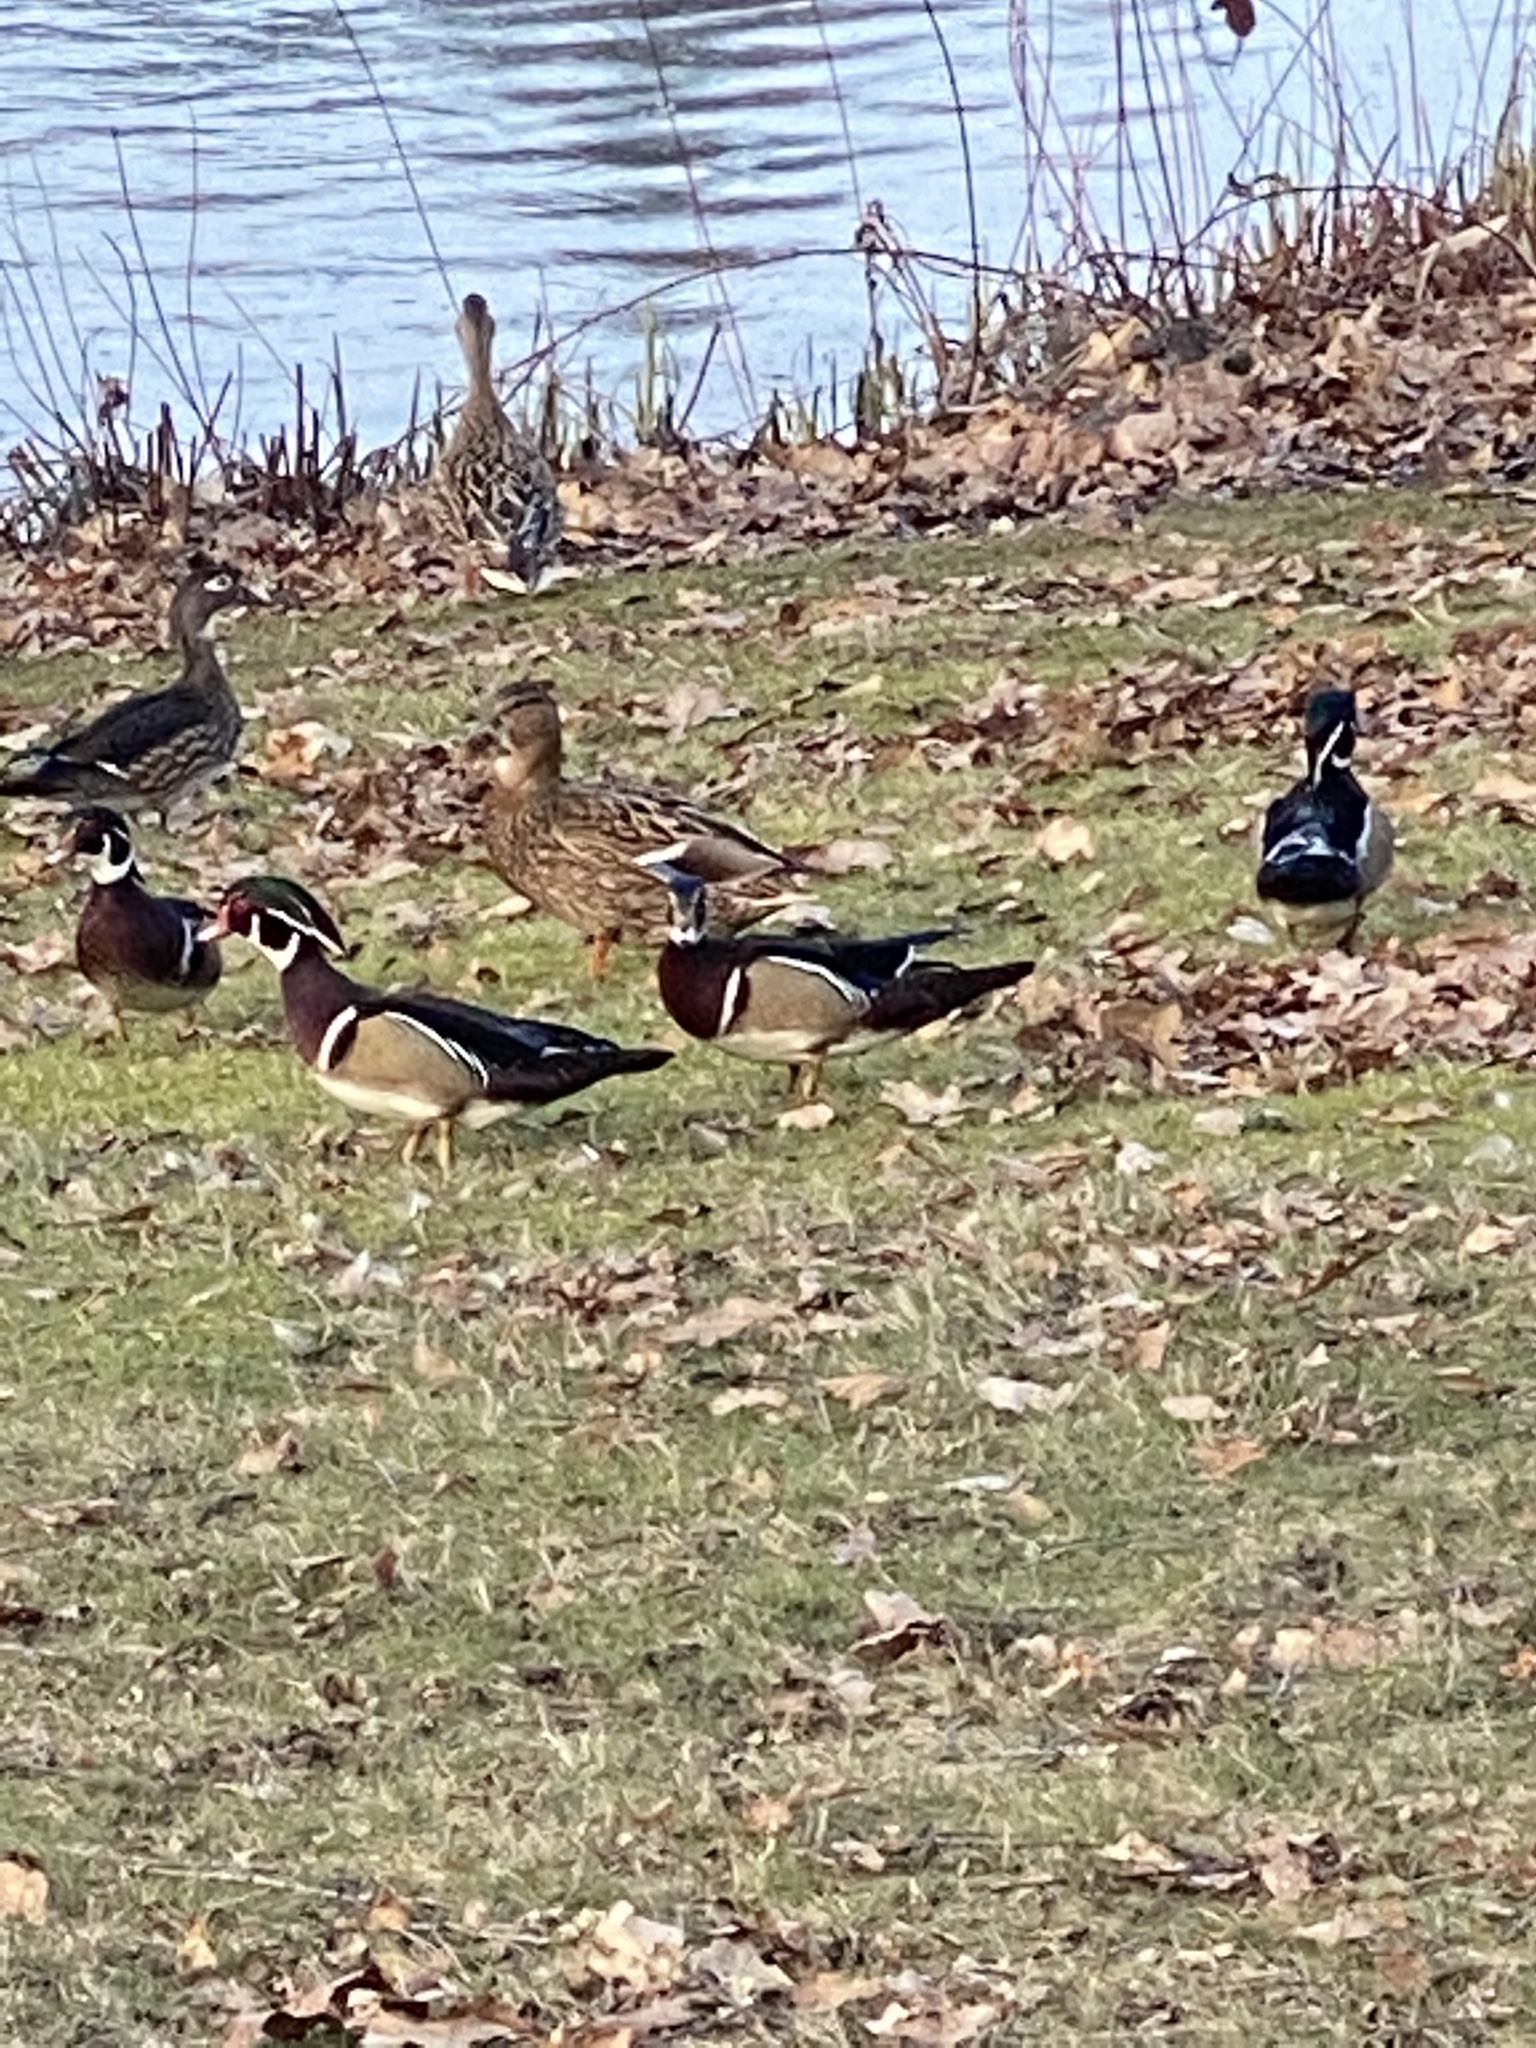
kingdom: Animalia
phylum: Chordata
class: Aves
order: Anseriformes
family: Anatidae
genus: Aix
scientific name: Aix sponsa
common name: Wood duck
